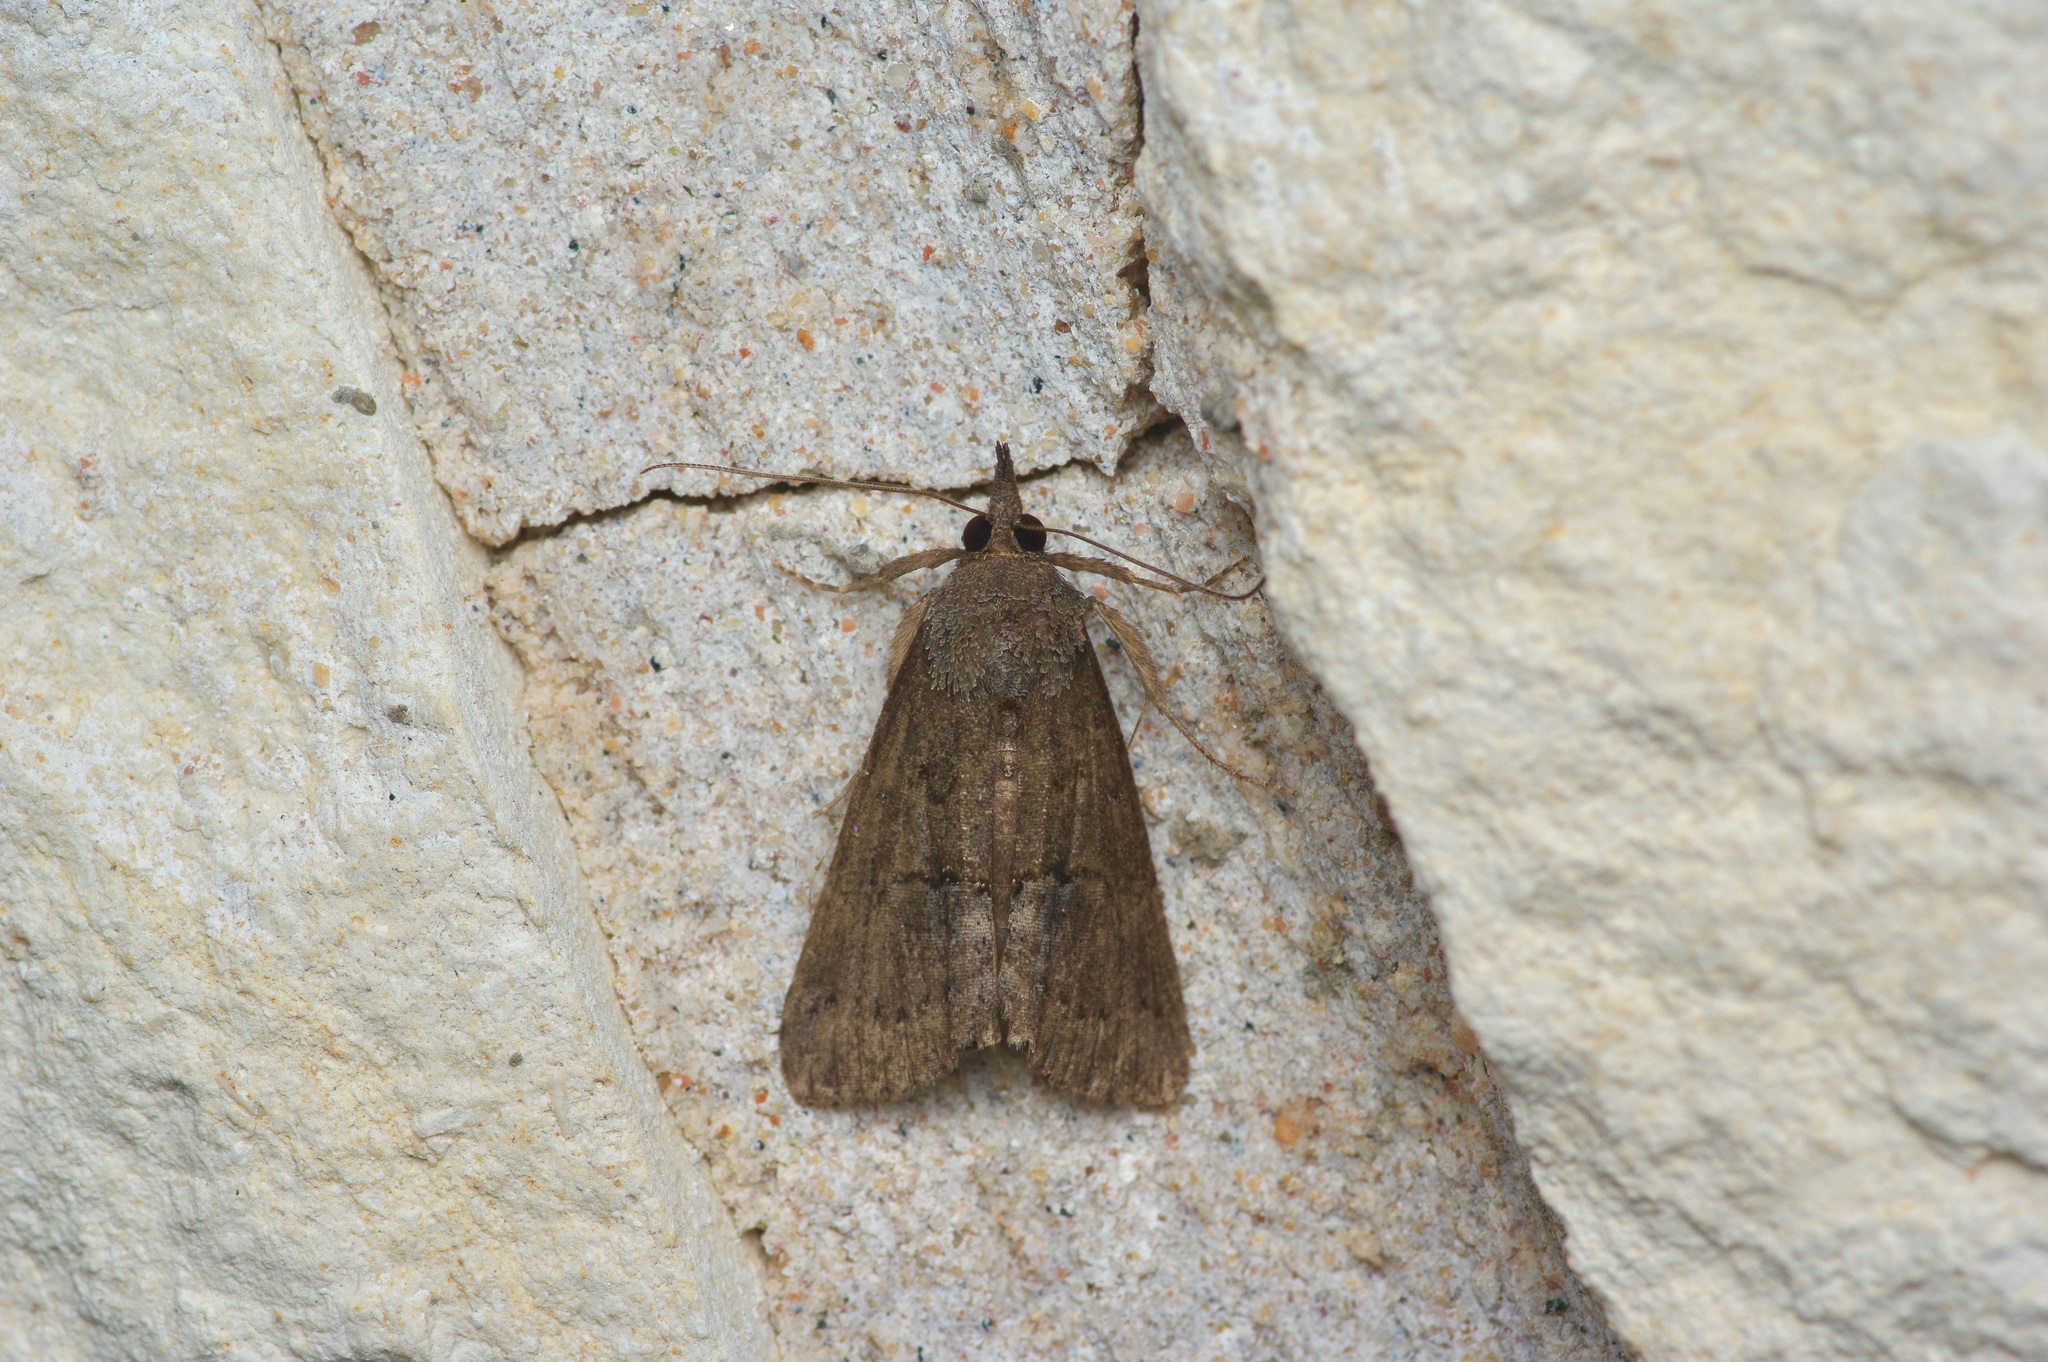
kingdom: Animalia
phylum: Arthropoda
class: Insecta
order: Lepidoptera
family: Erebidae
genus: Hypena
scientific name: Hypena scabra
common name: Green cloverworm
